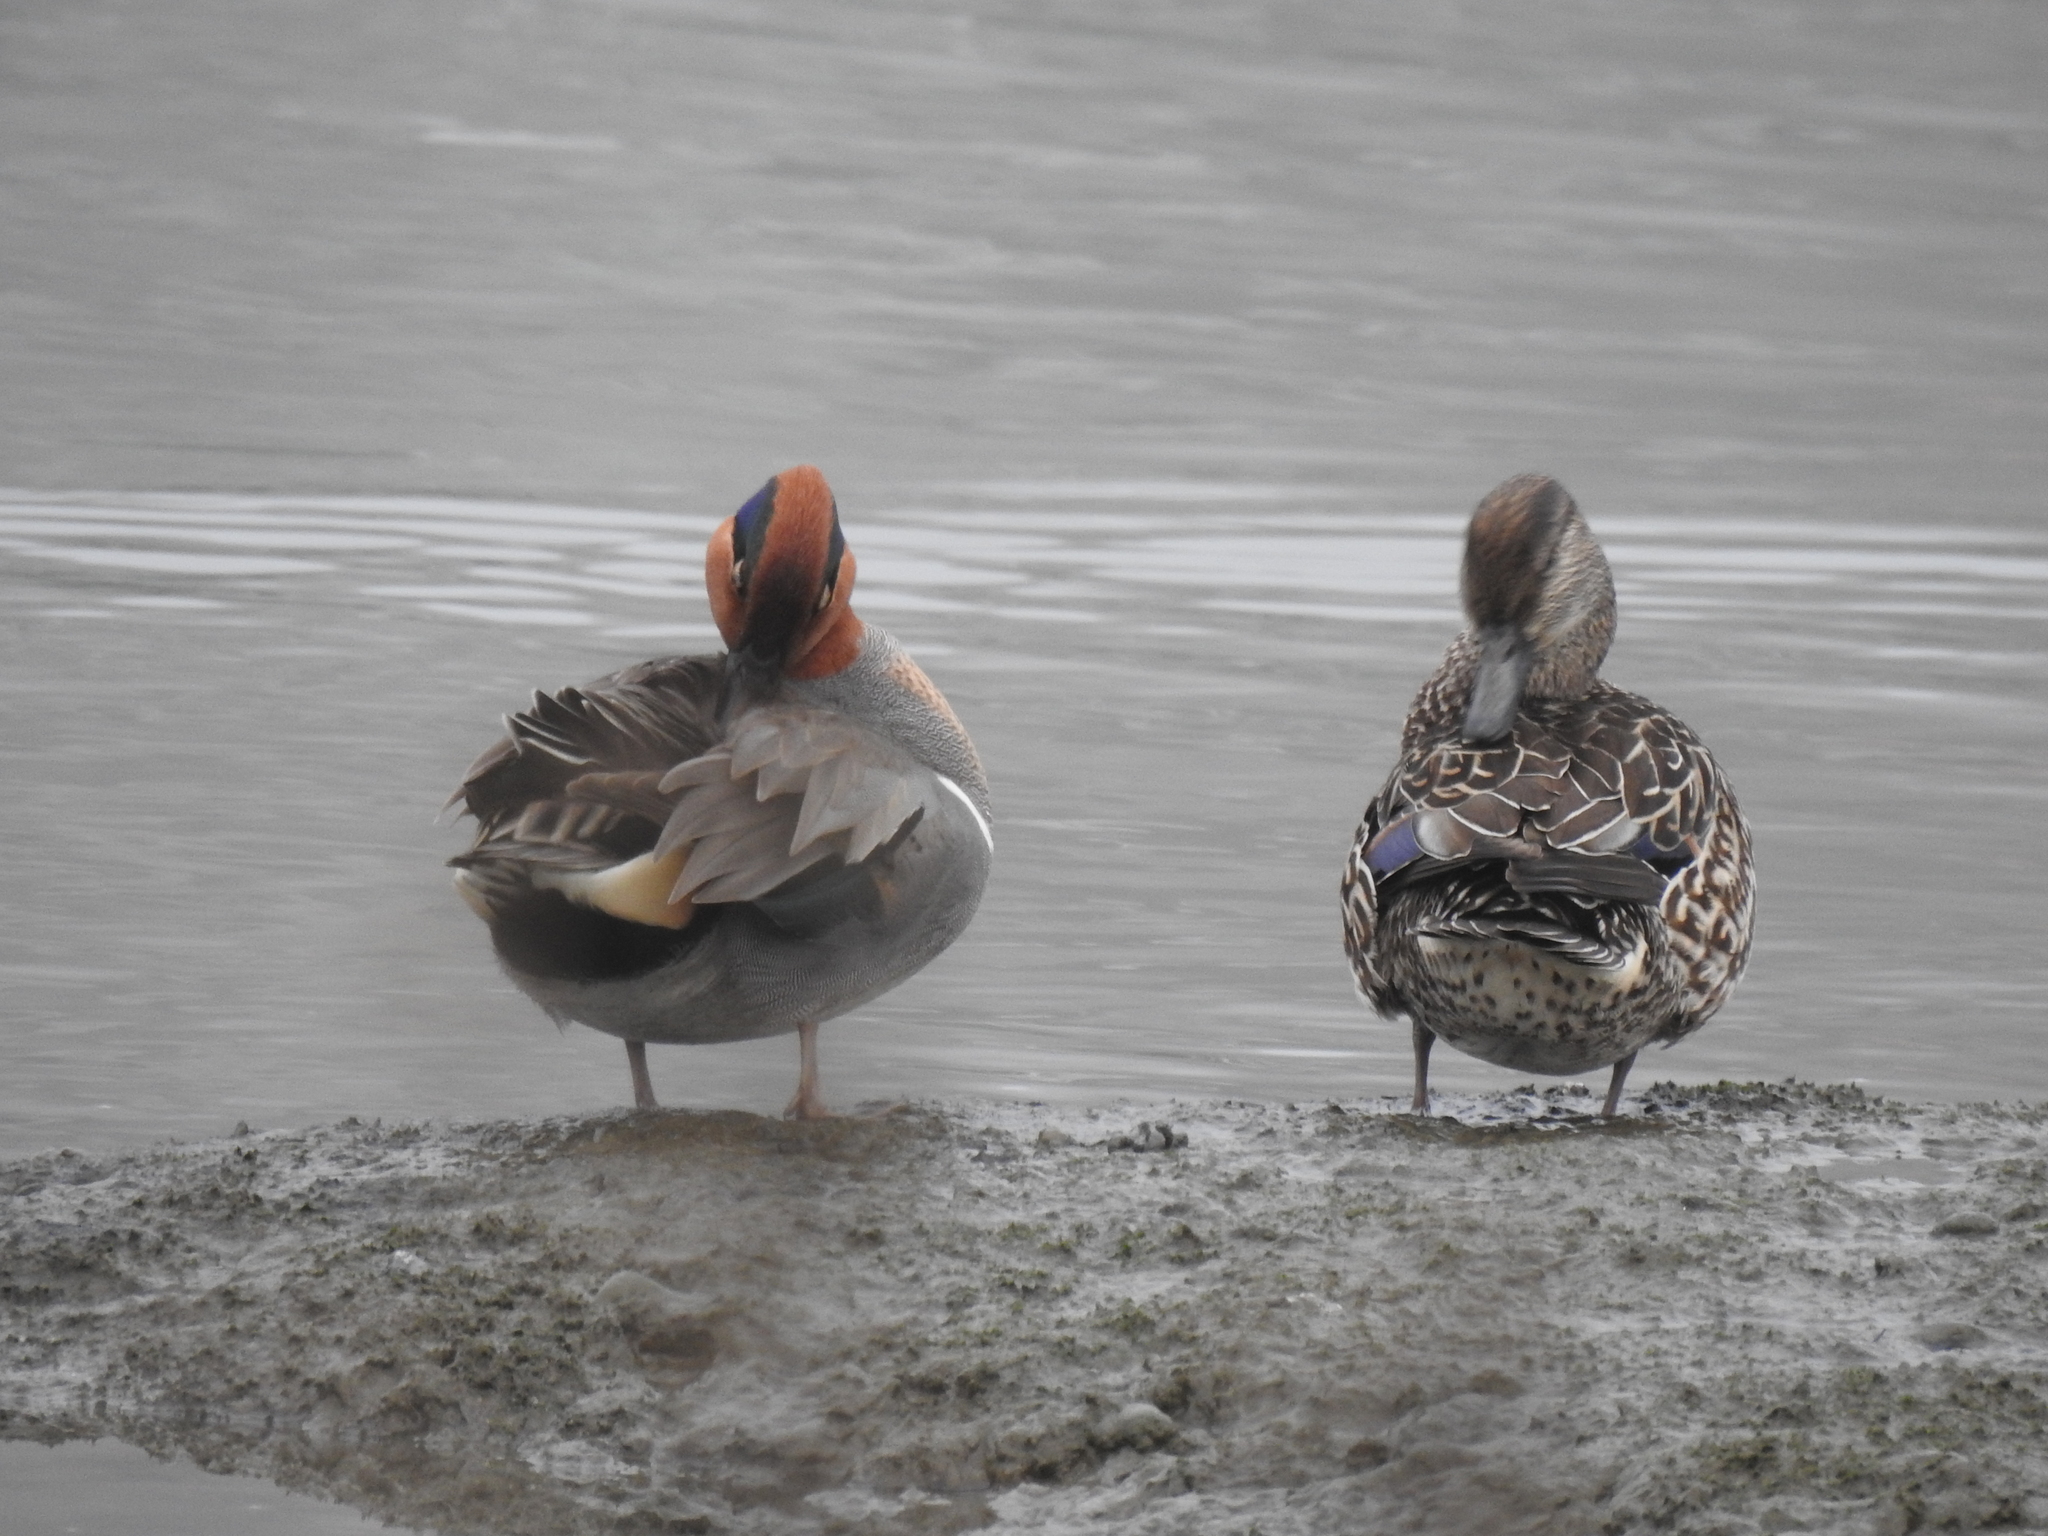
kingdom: Animalia
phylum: Chordata
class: Aves
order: Anseriformes
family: Anatidae
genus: Anas
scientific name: Anas crecca
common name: Eurasian teal
